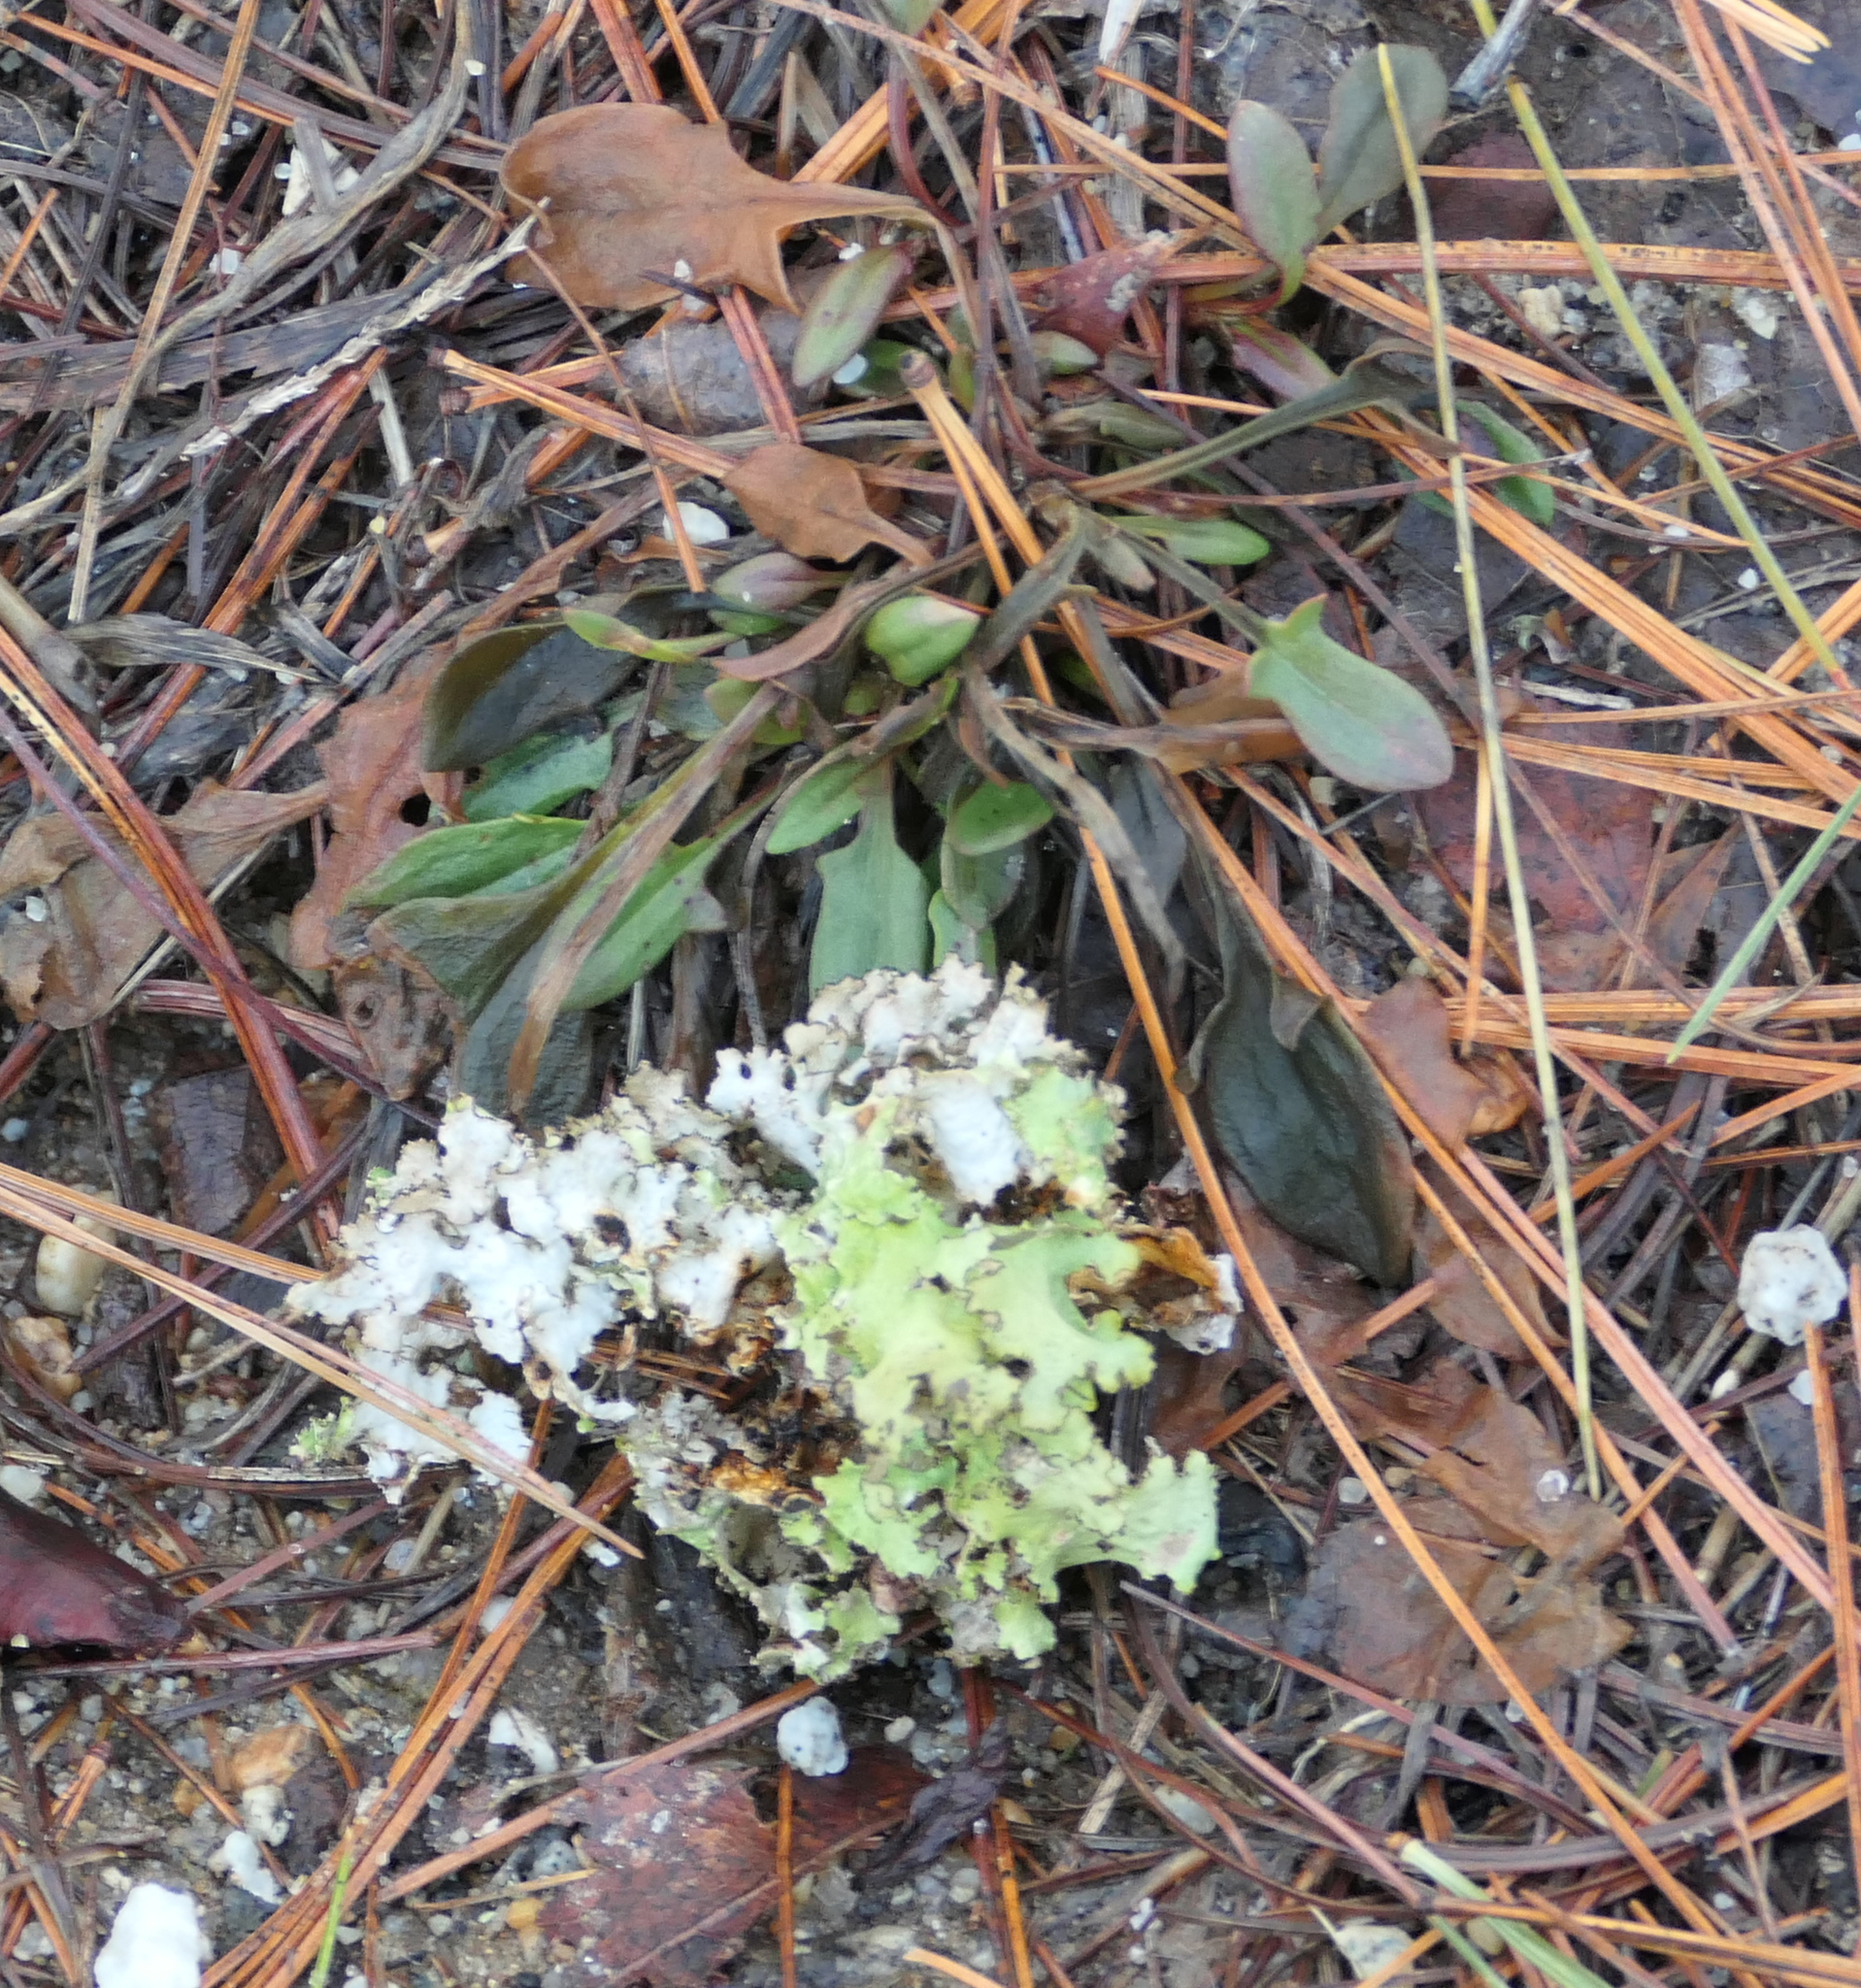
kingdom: Plantae
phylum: Tracheophyta
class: Magnoliopsida
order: Caryophyllales
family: Polygonaceae
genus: Rumex
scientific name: Rumex acetosella
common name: Common sheep sorrel
